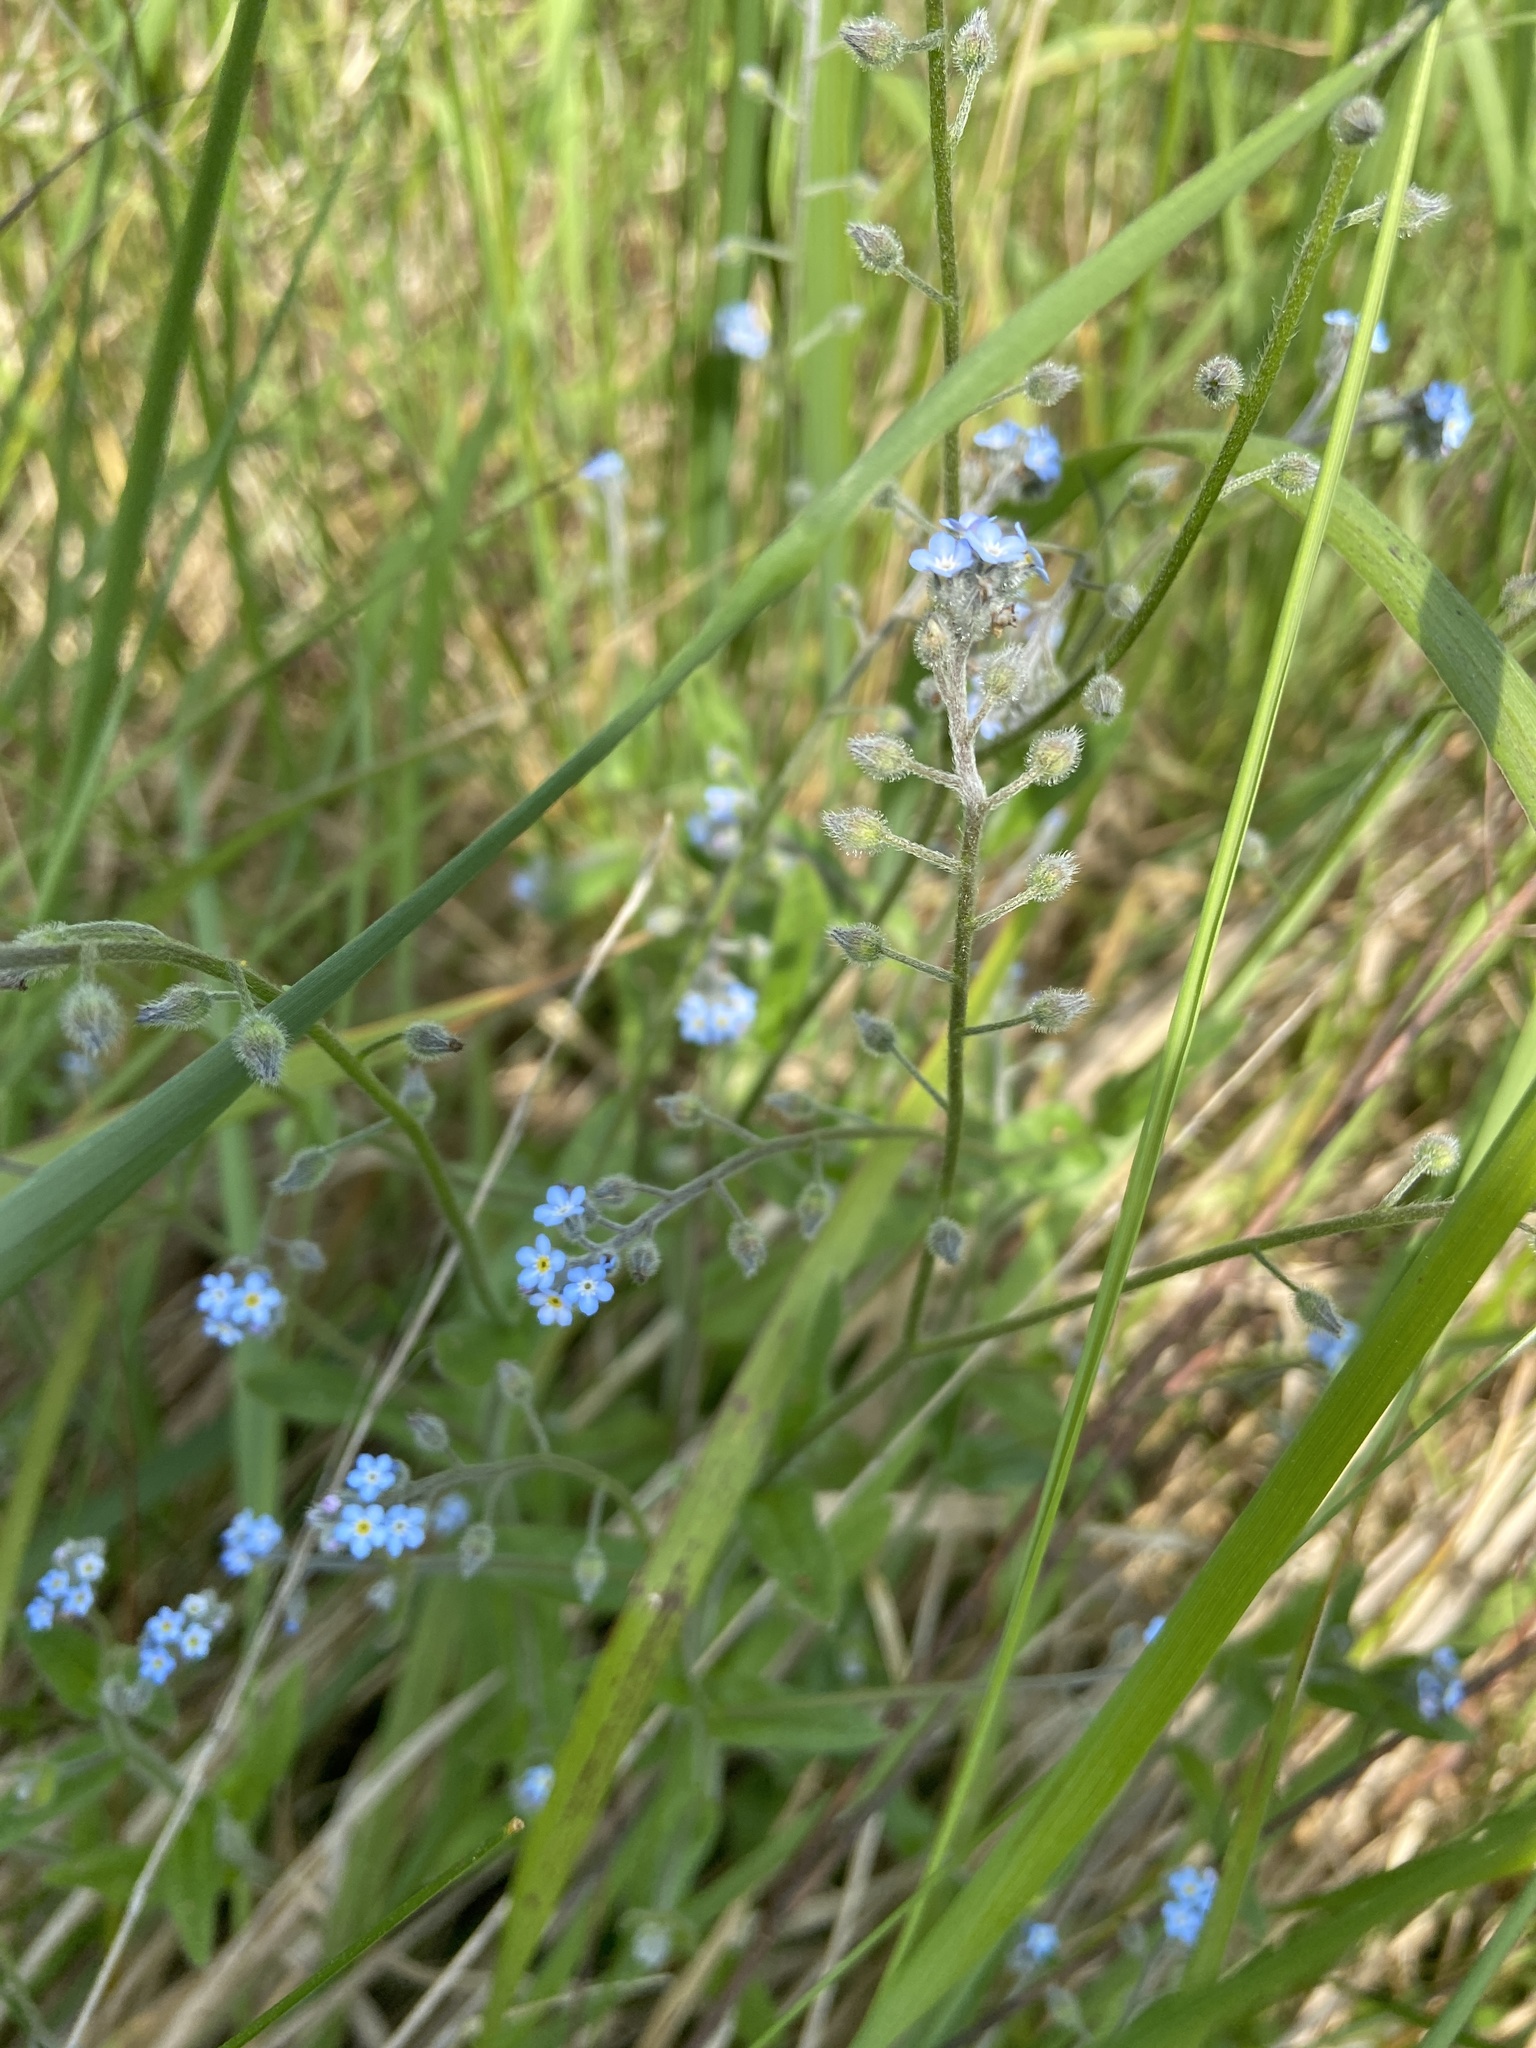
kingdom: Plantae
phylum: Tracheophyta
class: Magnoliopsida
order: Boraginales
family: Boraginaceae
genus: Myosotis
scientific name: Myosotis arvensis
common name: Field forget-me-not
